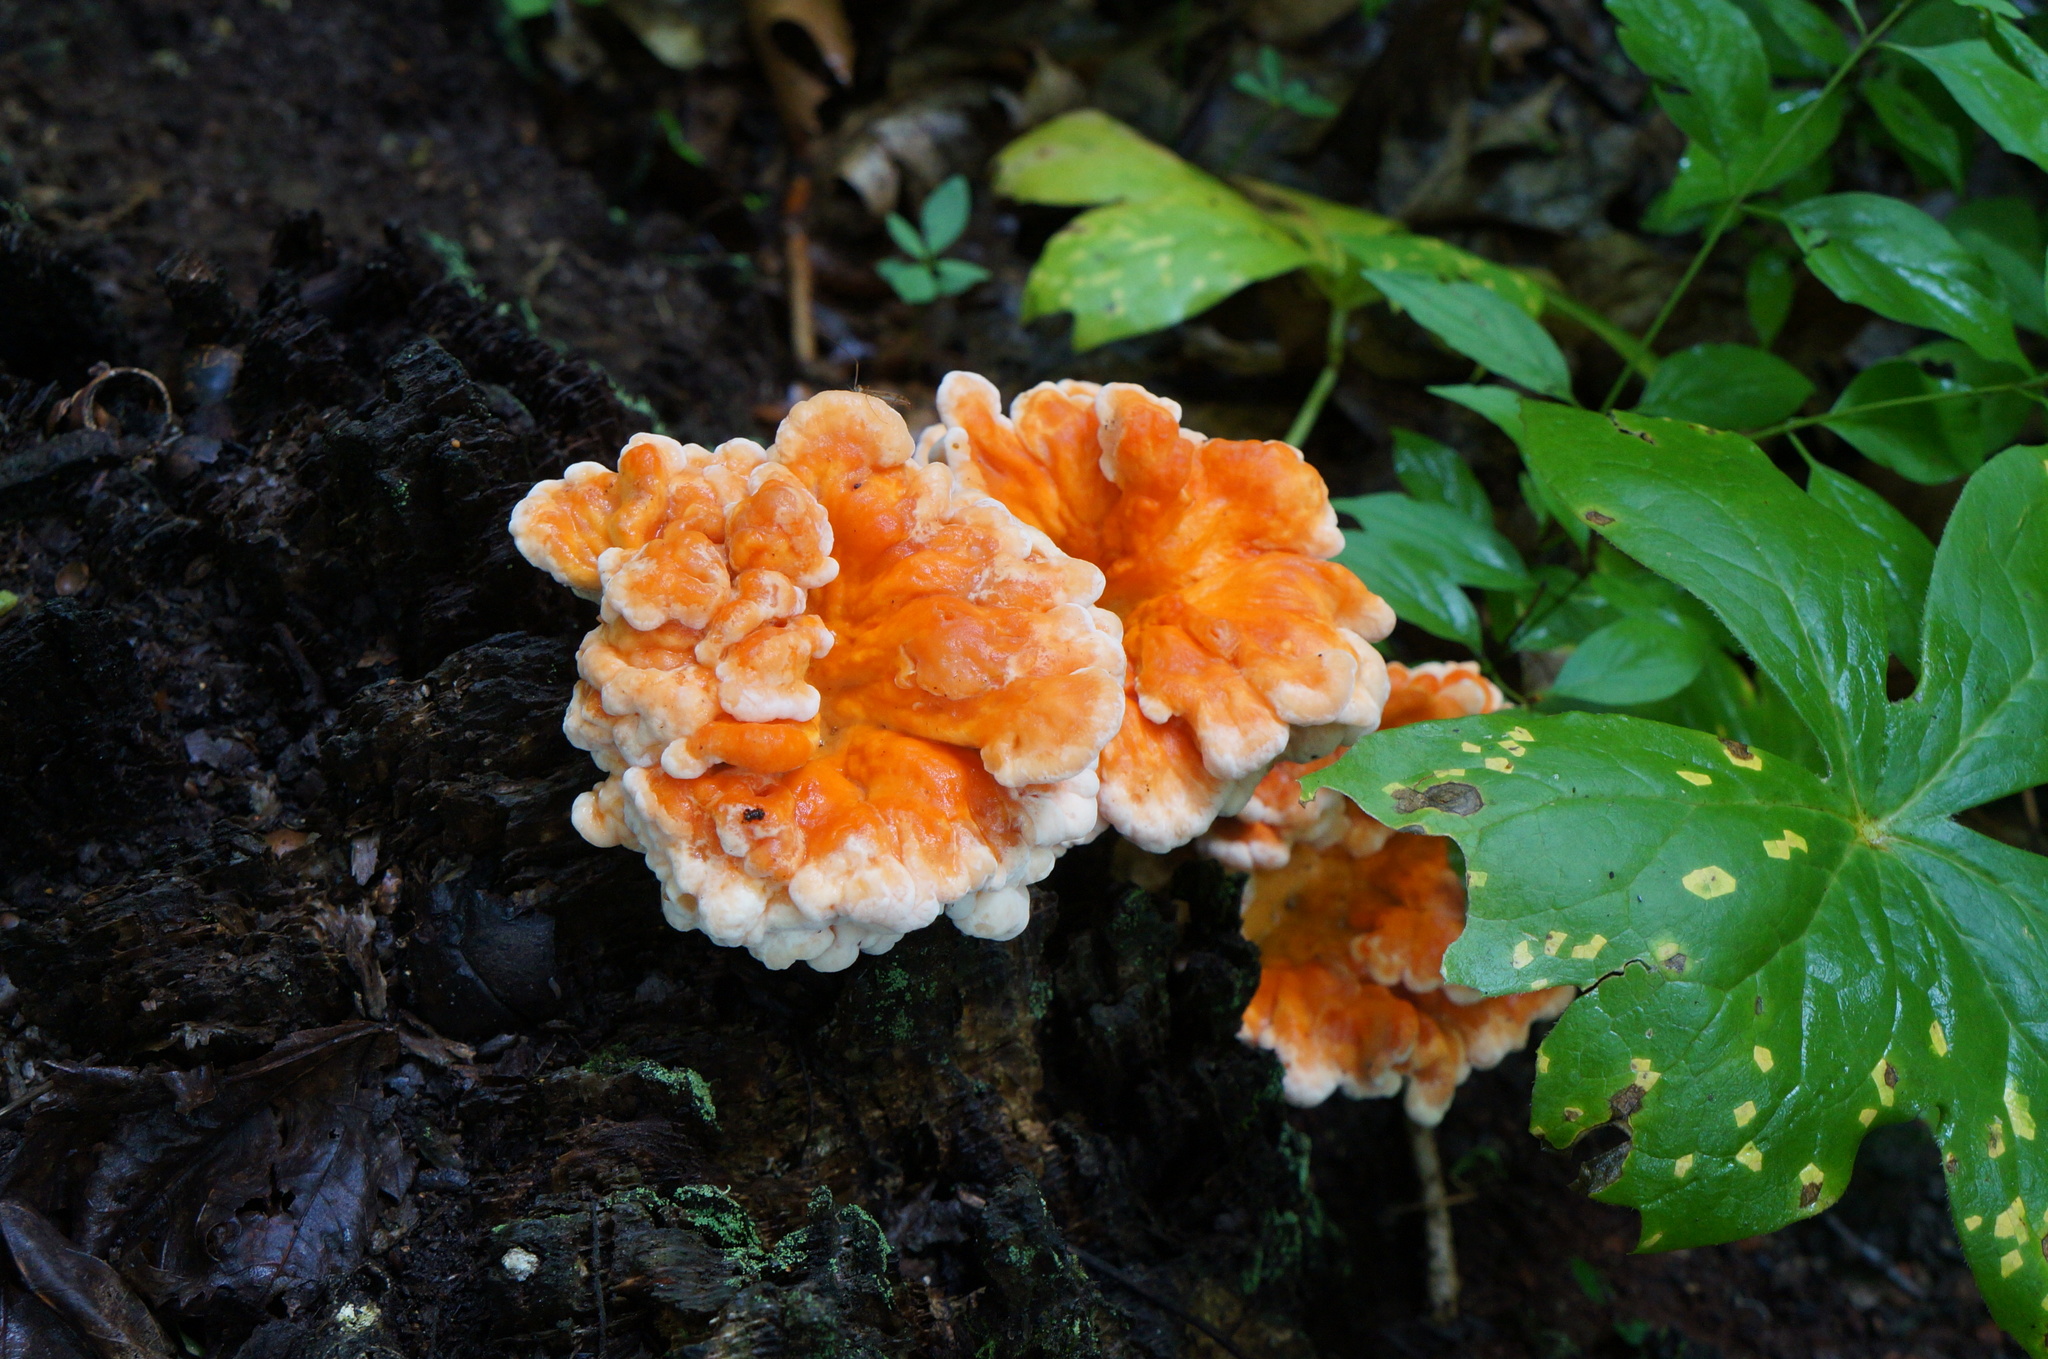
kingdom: Fungi
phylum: Basidiomycota
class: Agaricomycetes
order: Polyporales
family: Laetiporaceae
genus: Laetiporus
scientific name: Laetiporus sulphureus
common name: Chicken of the woods
